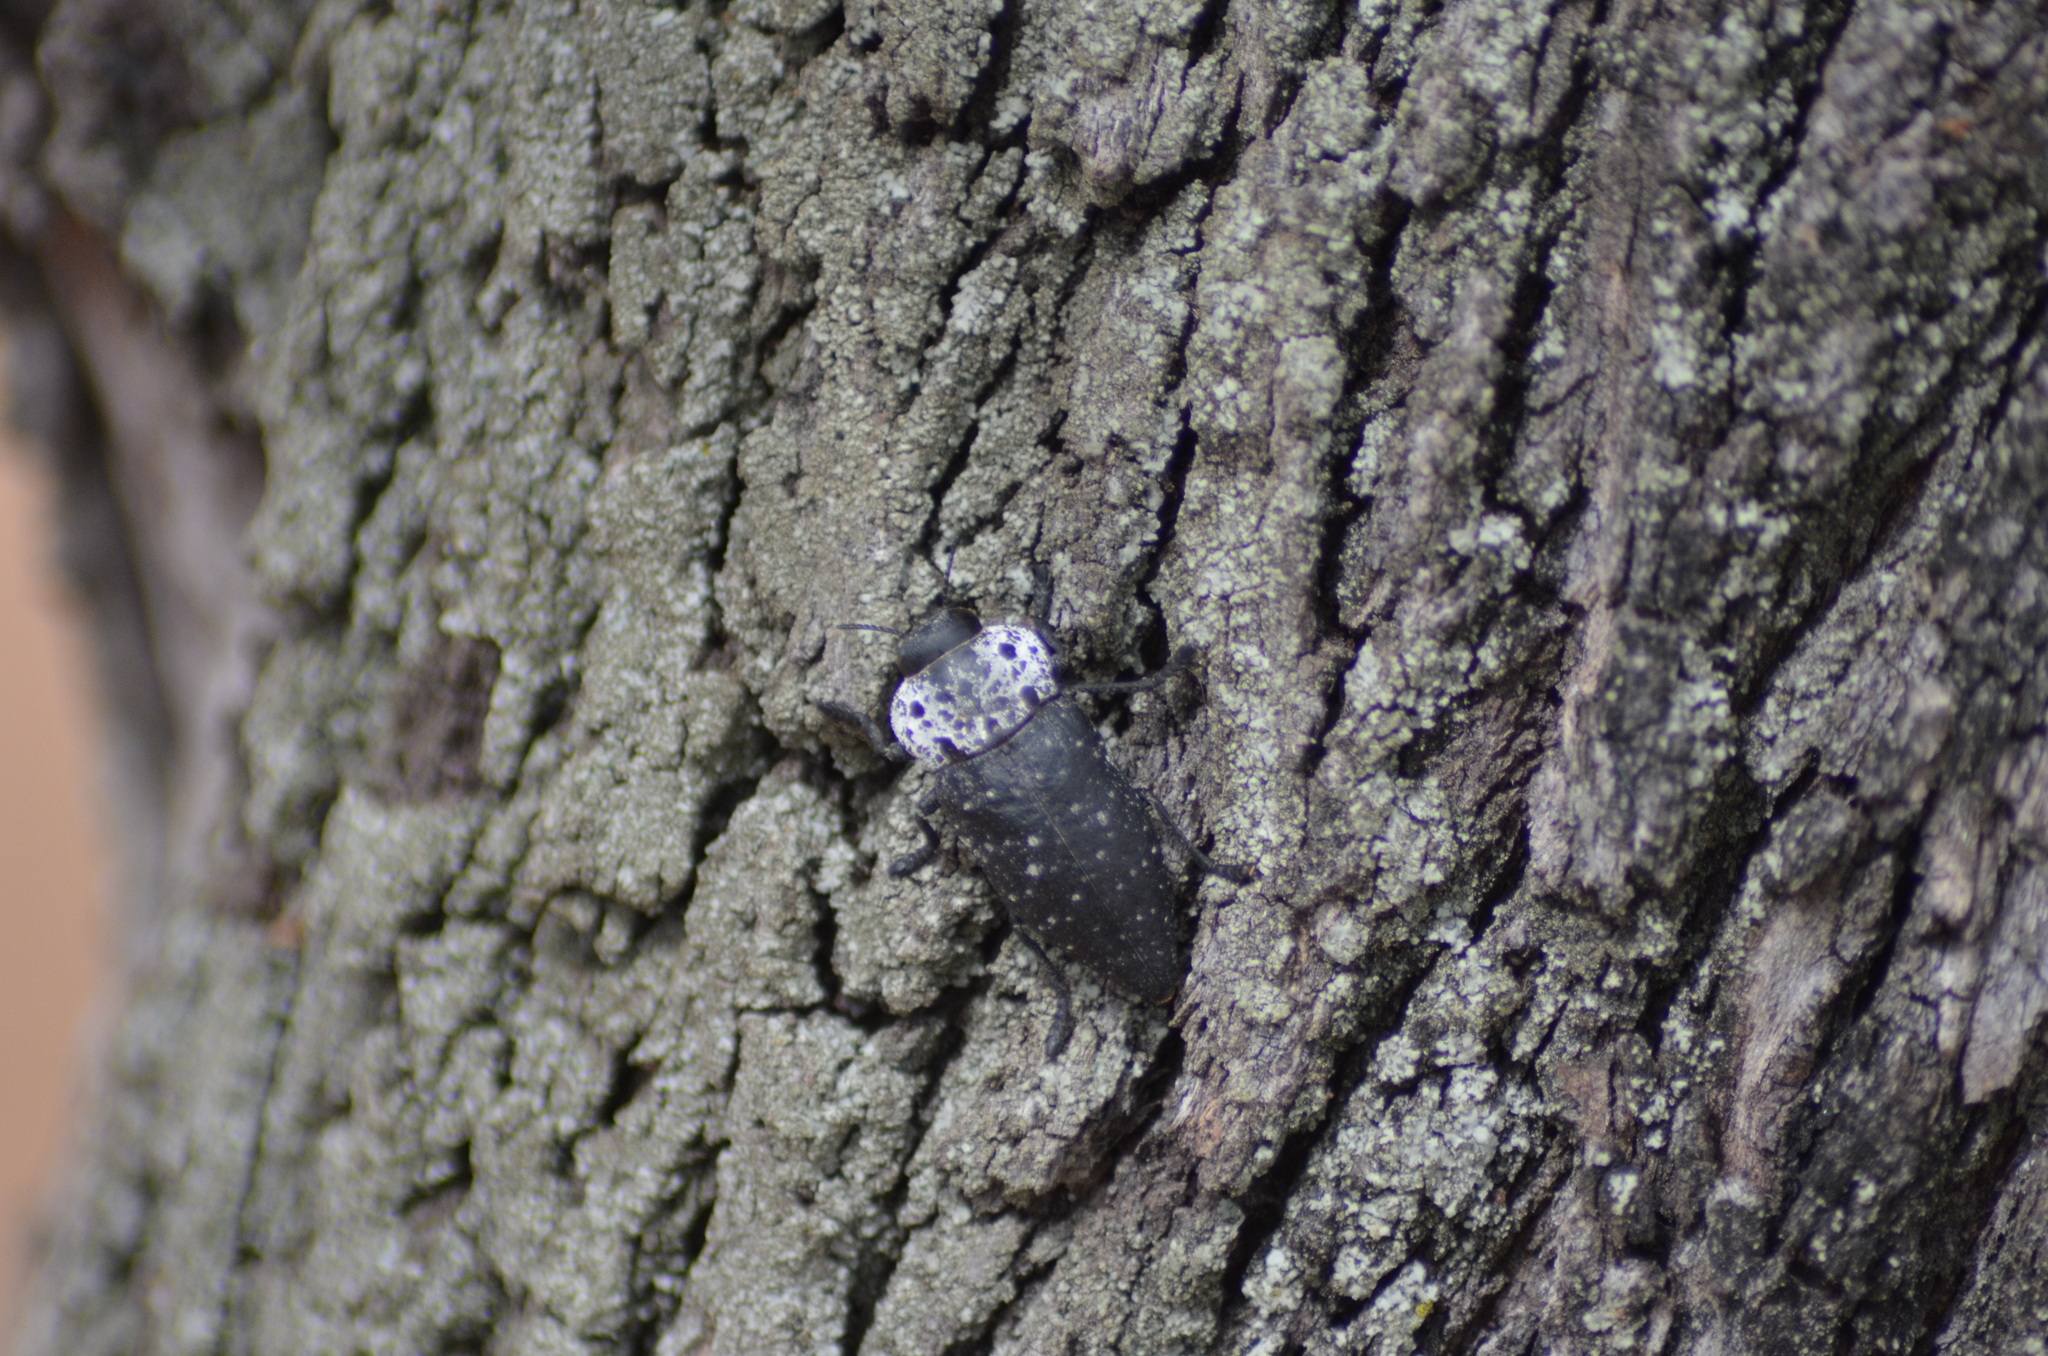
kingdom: Animalia
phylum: Arthropoda
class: Insecta
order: Coleoptera
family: Buprestidae
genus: Capnodis
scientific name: Capnodis tenebrionis
